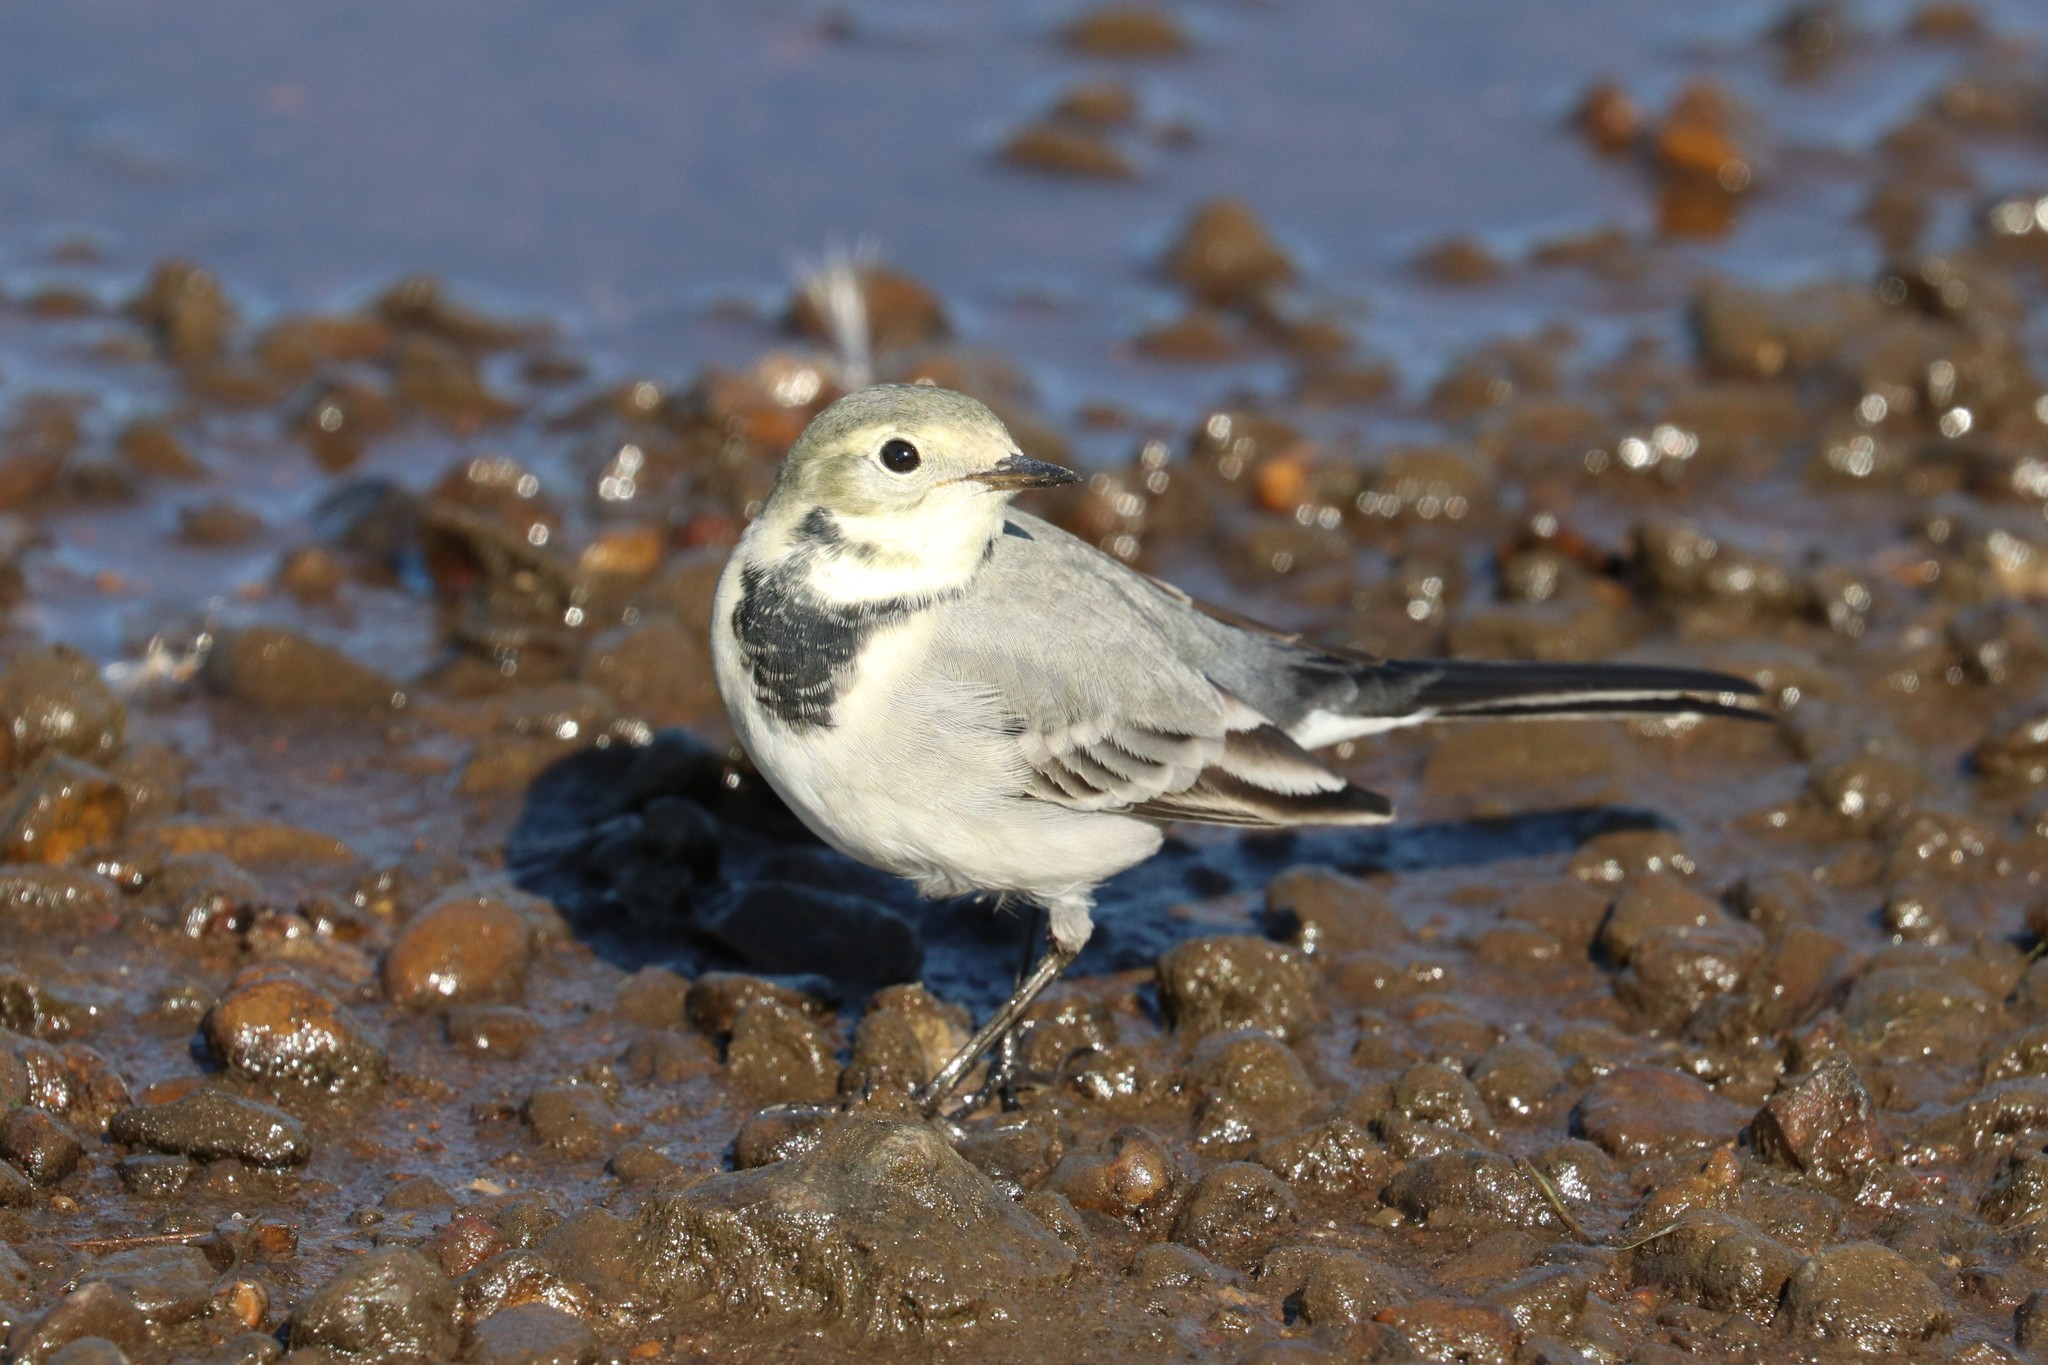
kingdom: Animalia
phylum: Chordata
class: Aves
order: Passeriformes
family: Motacillidae
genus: Motacilla
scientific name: Motacilla alba
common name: White wagtail
